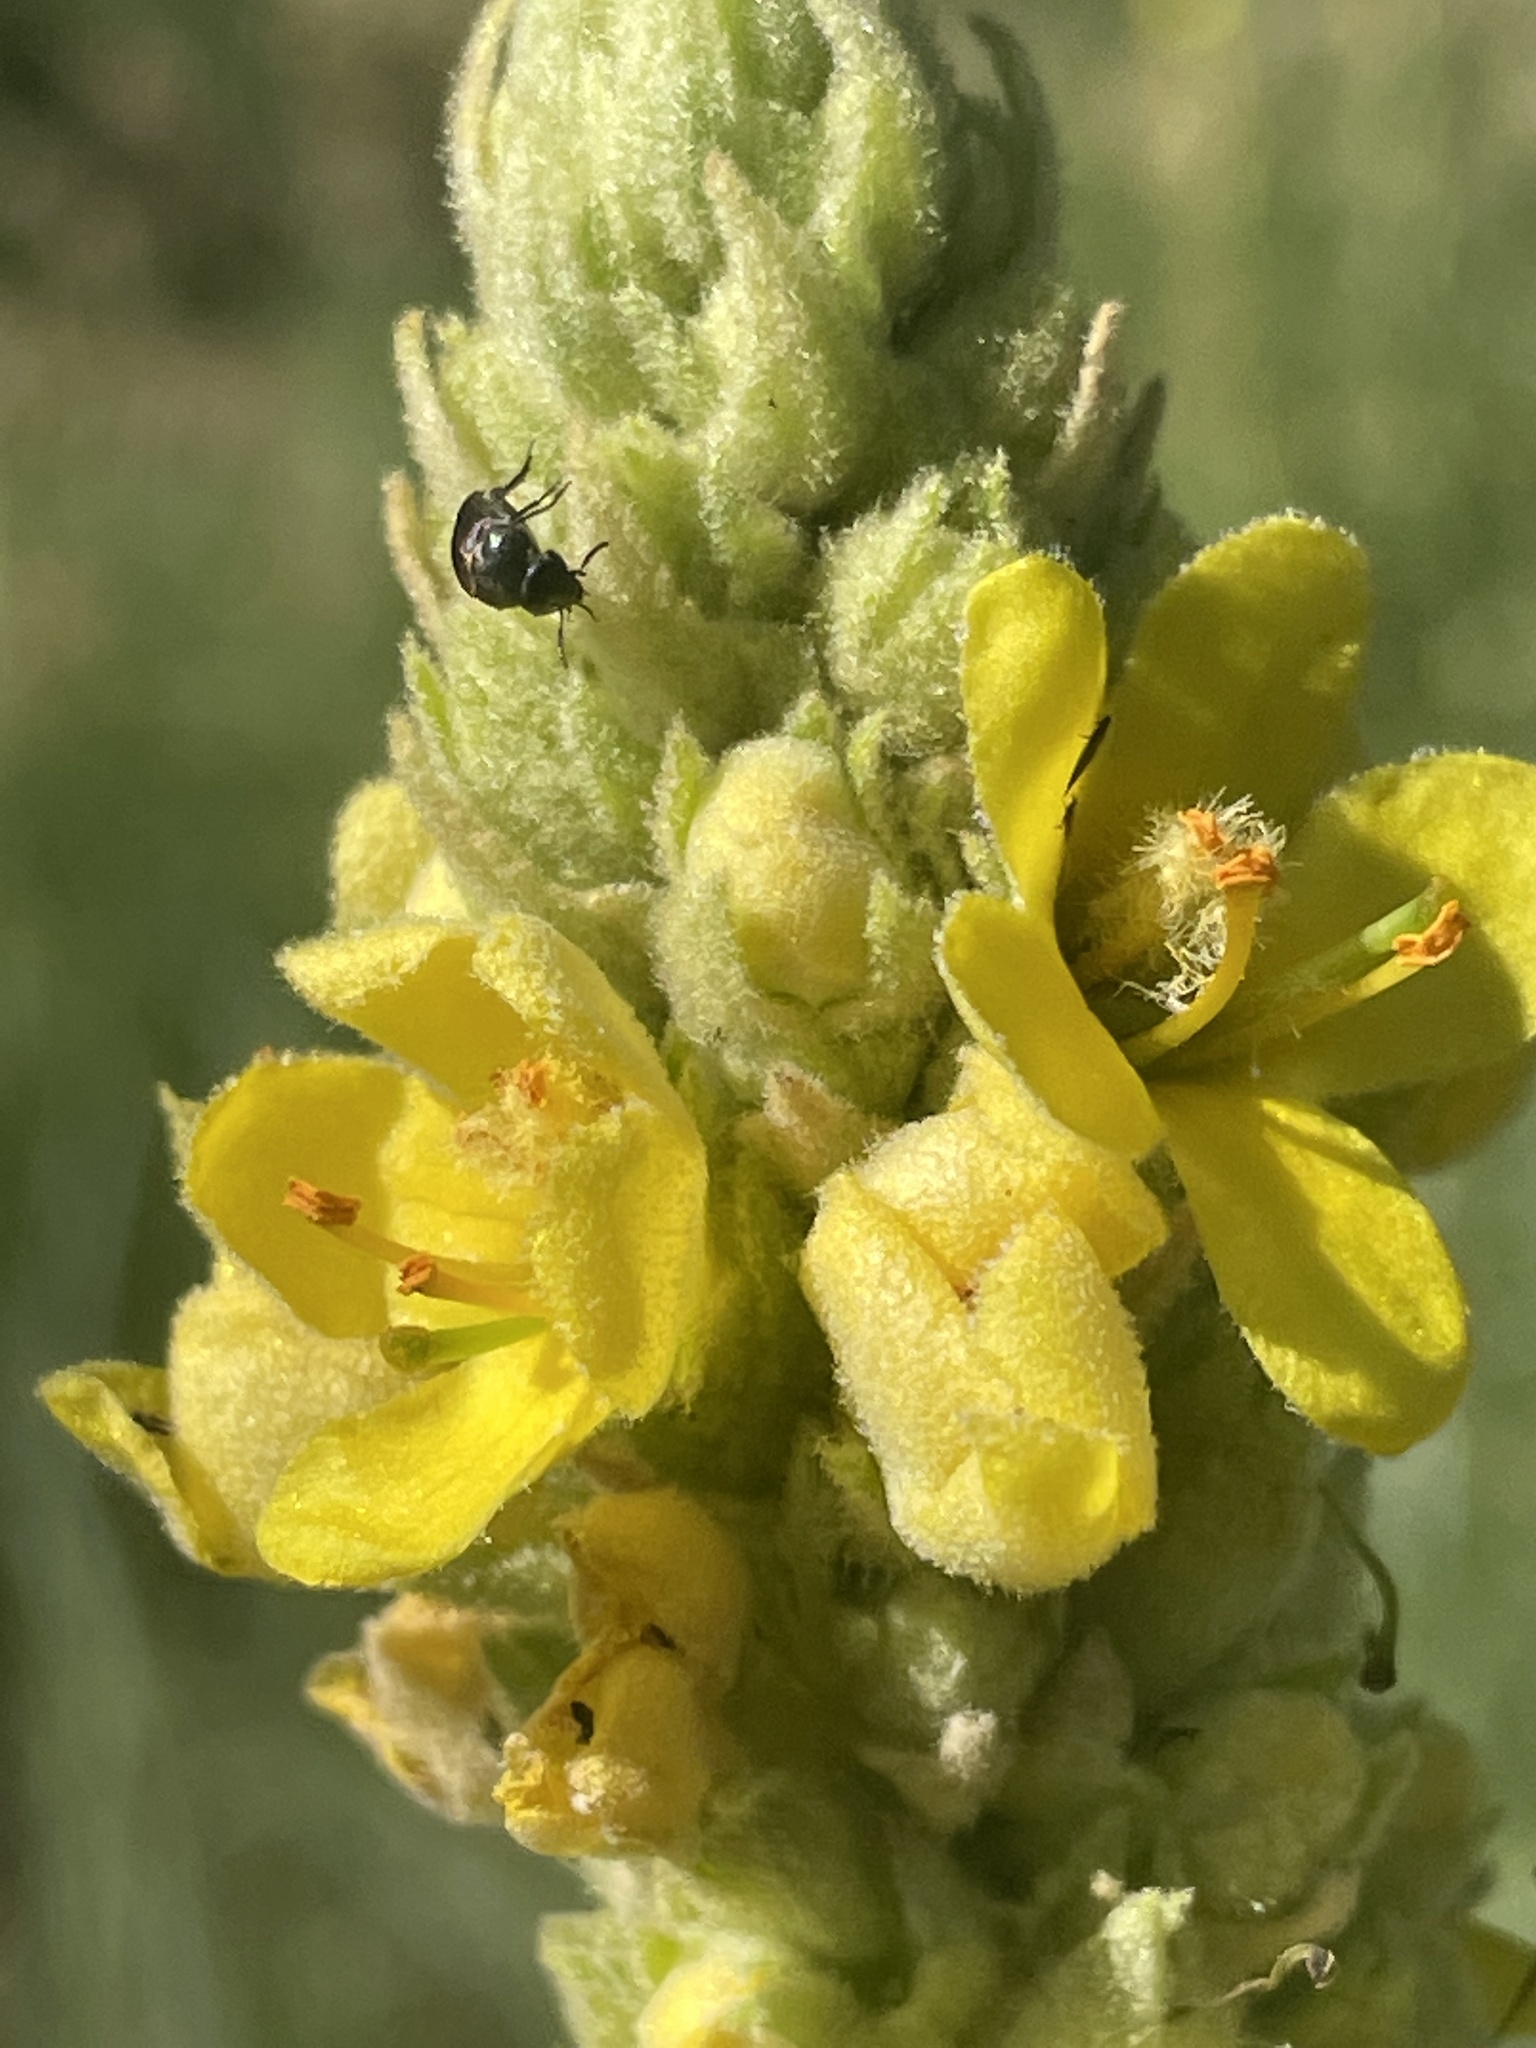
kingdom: Plantae
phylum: Tracheophyta
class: Magnoliopsida
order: Lamiales
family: Scrophulariaceae
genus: Verbascum
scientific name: Verbascum thapsus
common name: Common mullein
